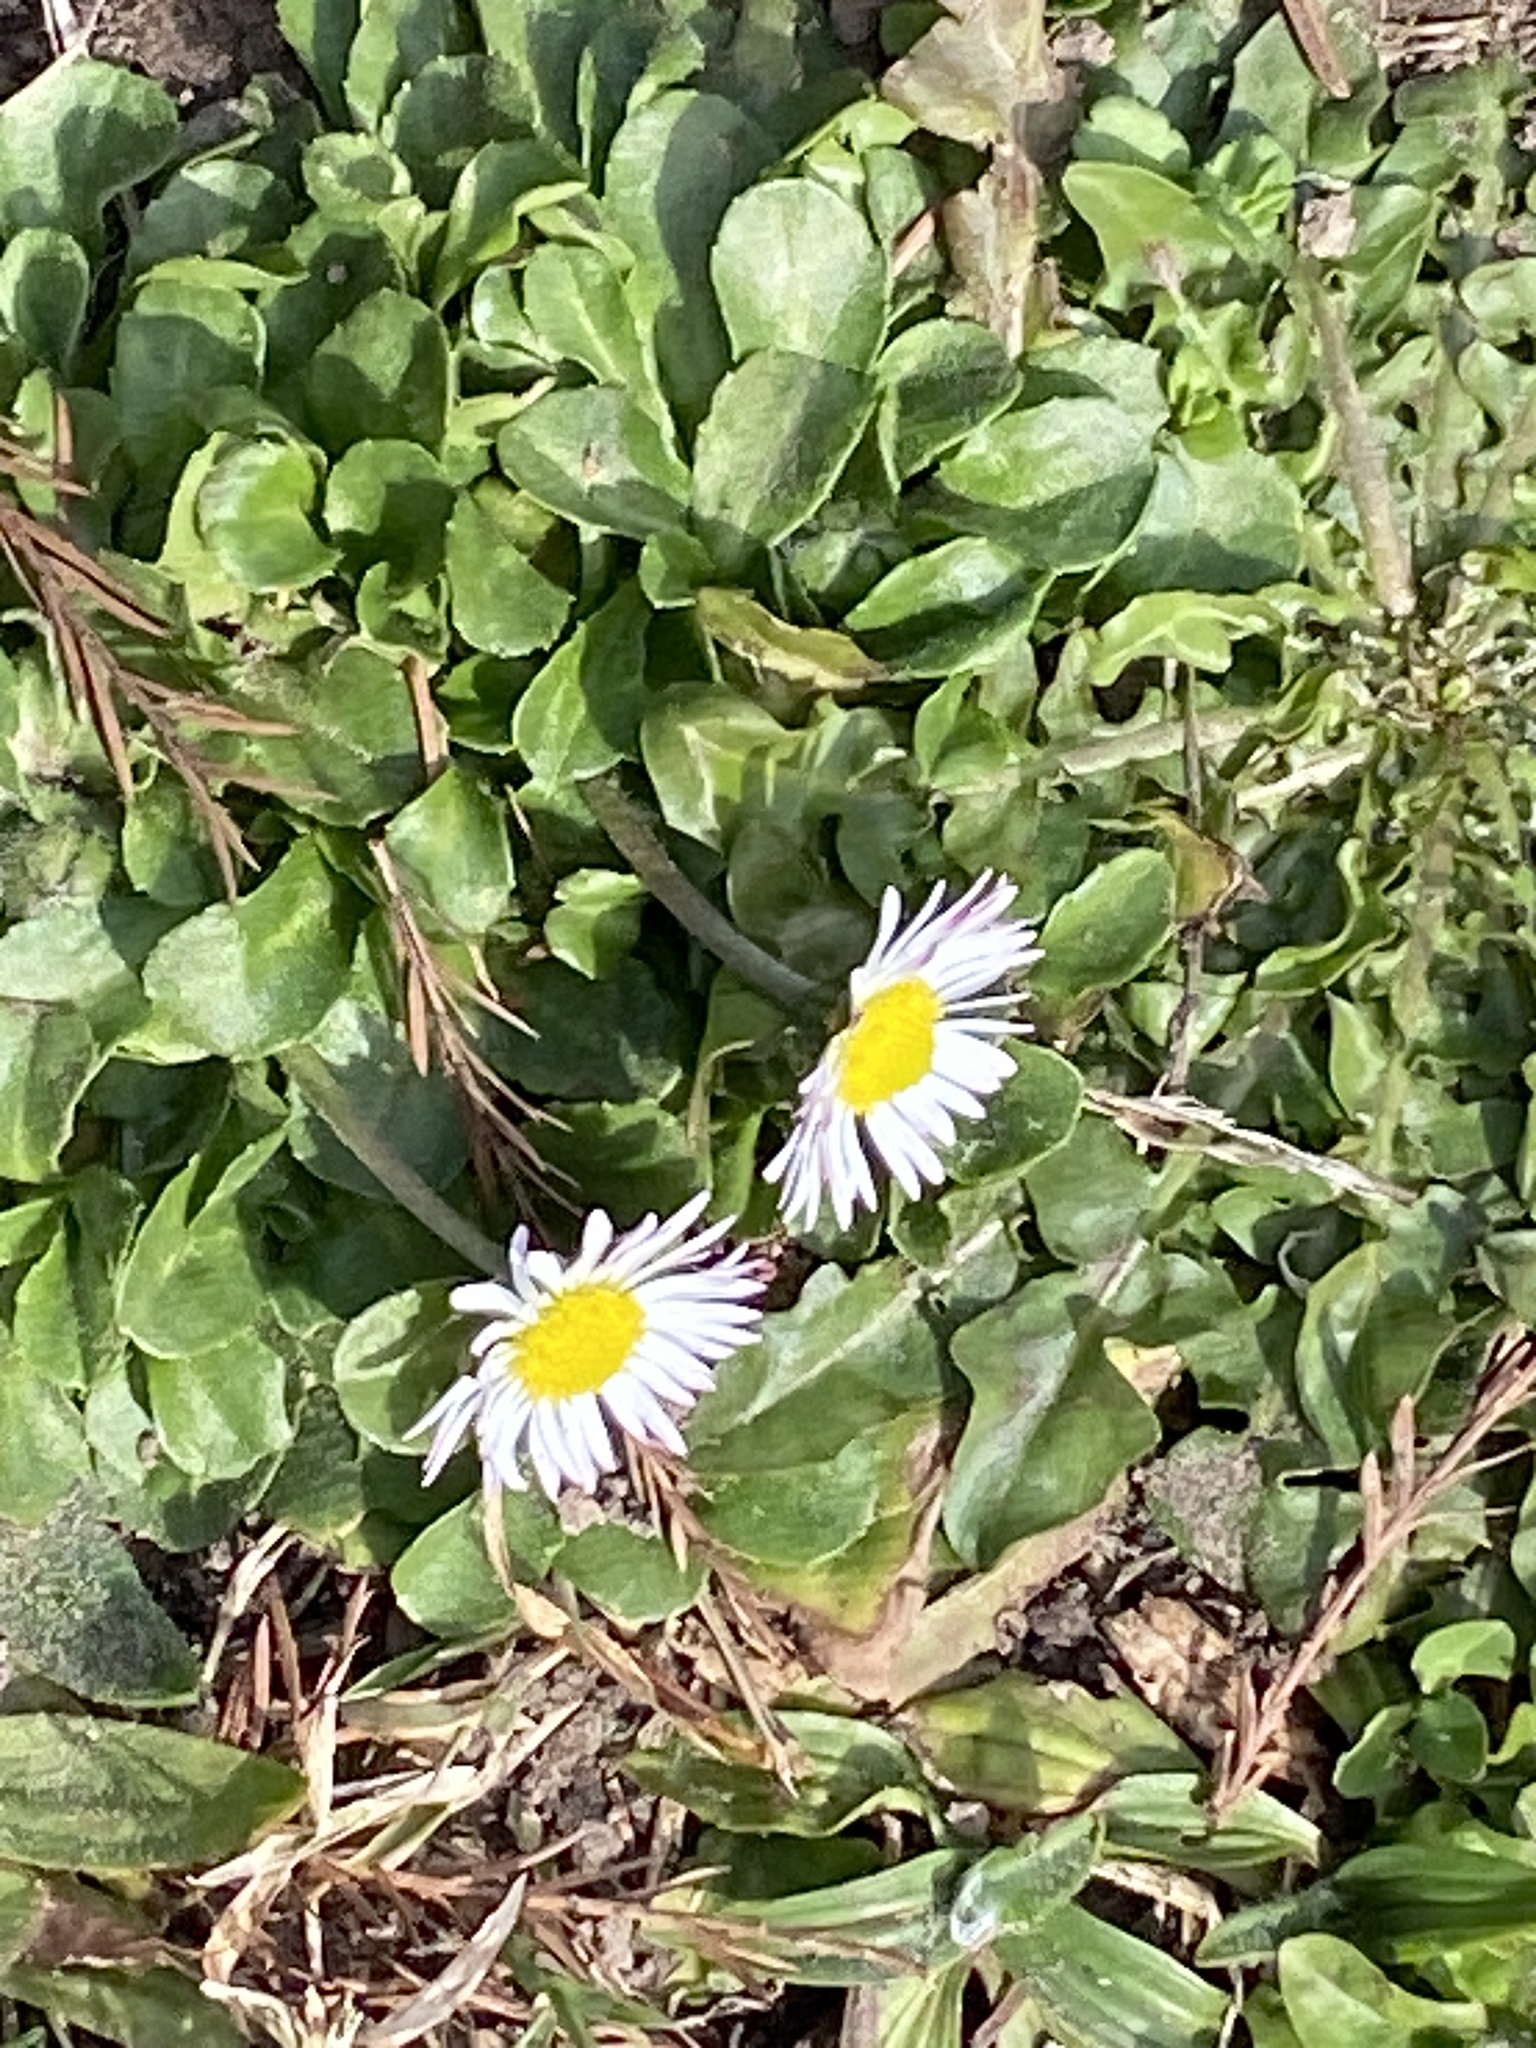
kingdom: Plantae
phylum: Tracheophyta
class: Magnoliopsida
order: Asterales
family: Asteraceae
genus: Bellis
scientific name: Bellis perennis
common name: Lawndaisy
